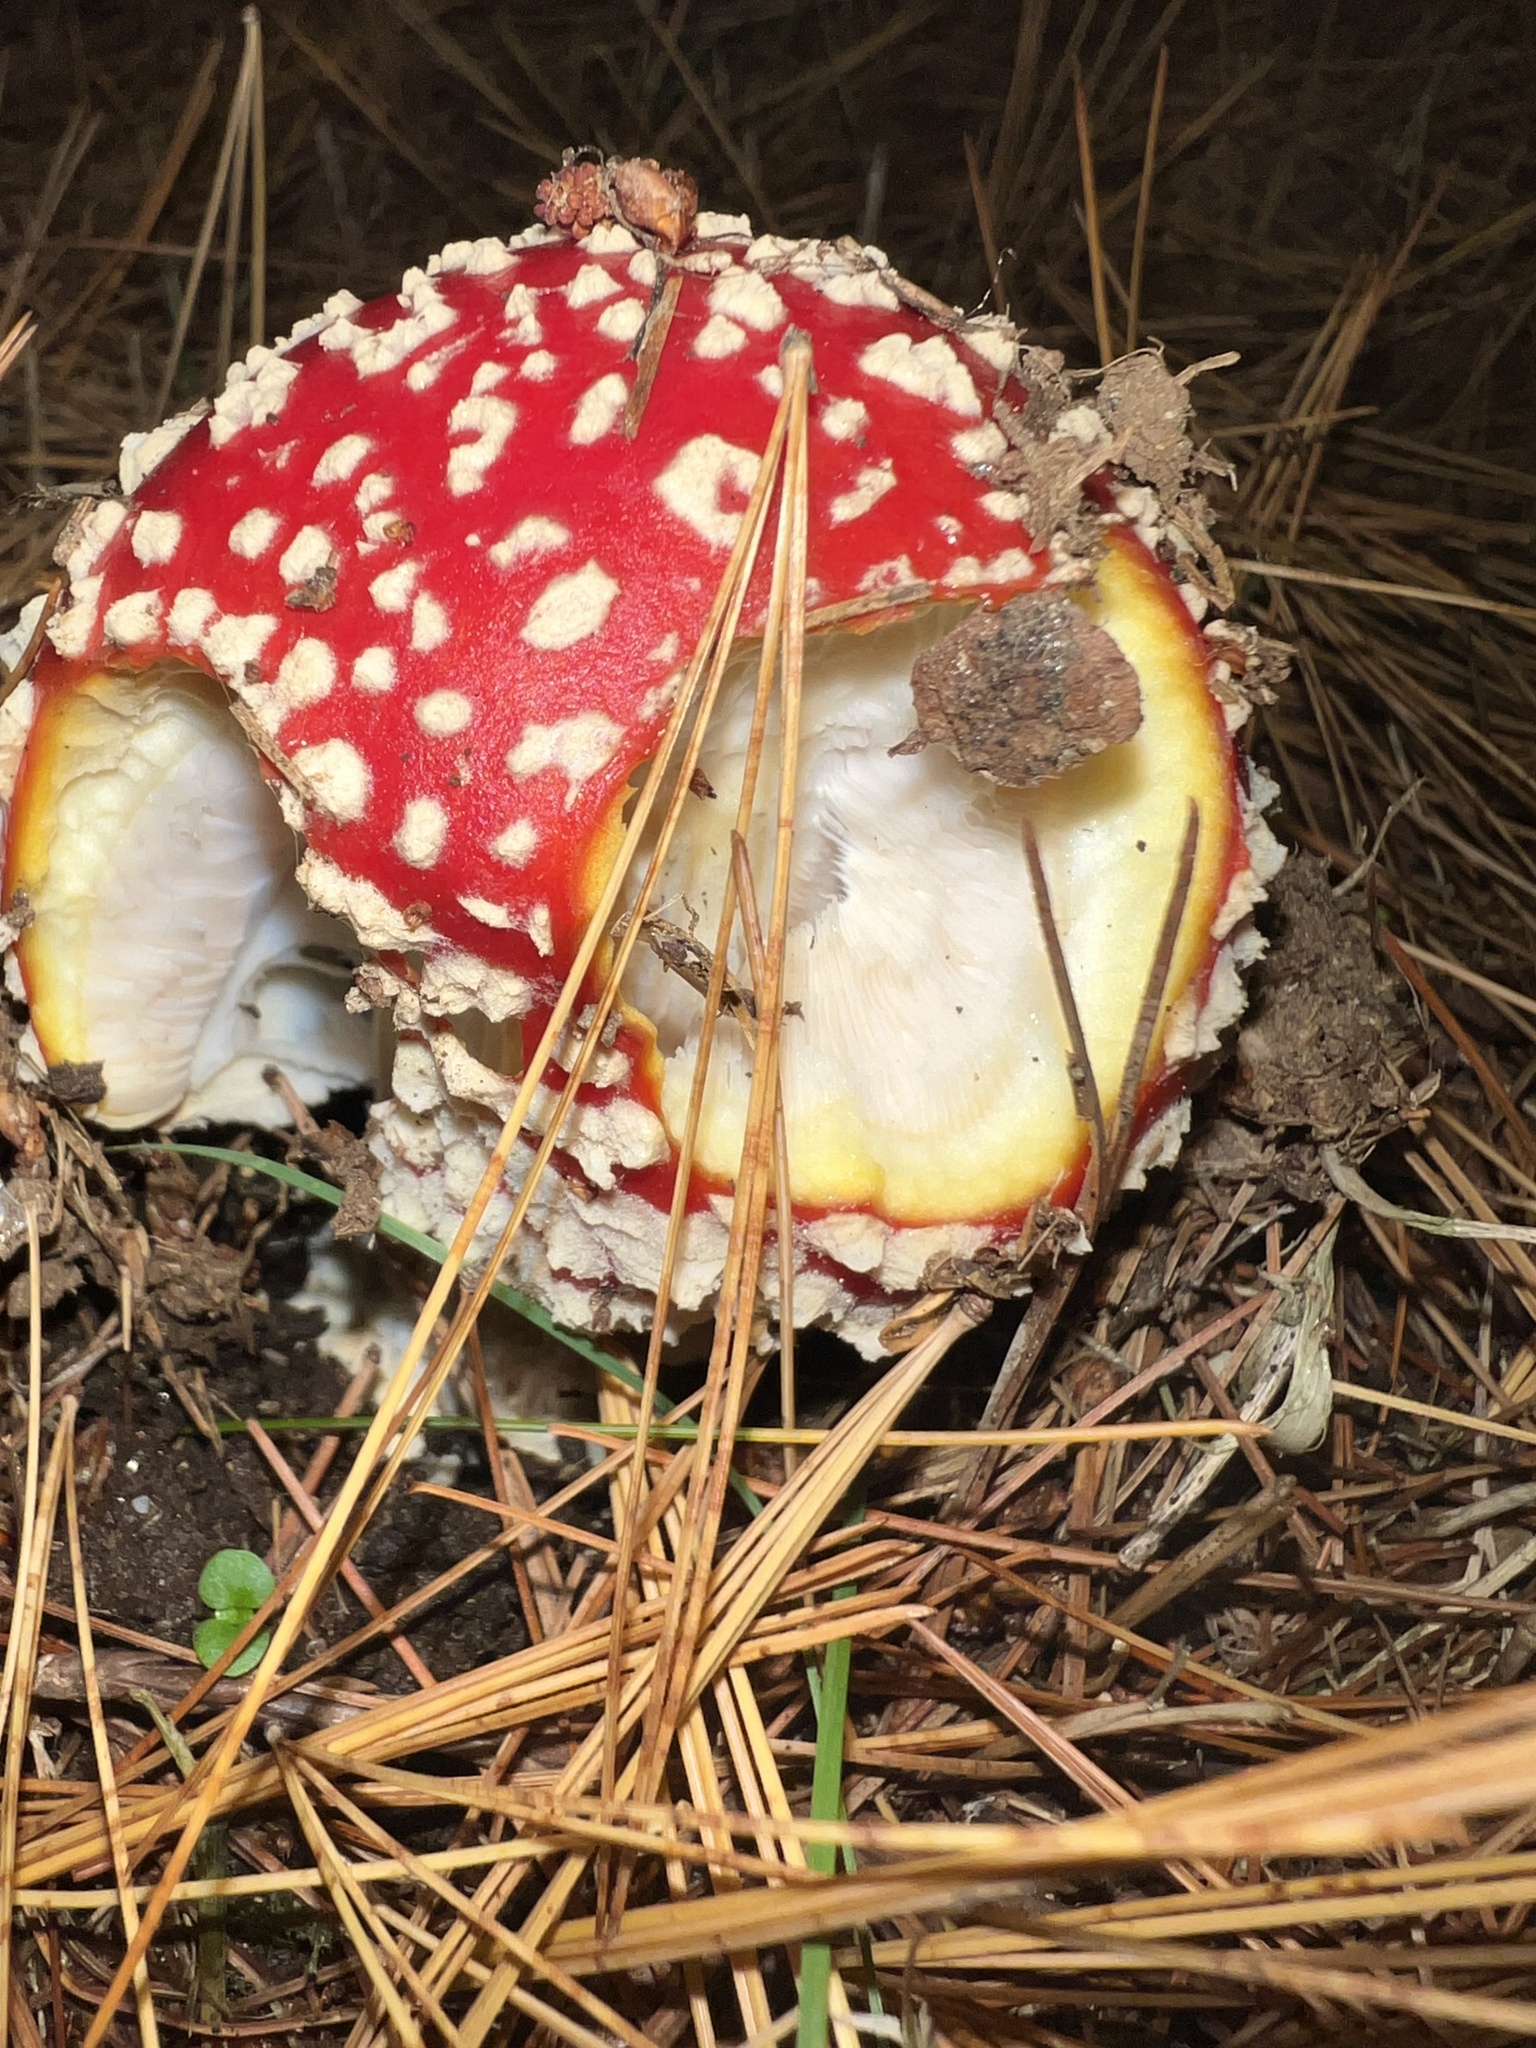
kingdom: Fungi
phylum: Basidiomycota
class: Agaricomycetes
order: Agaricales
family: Amanitaceae
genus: Amanita
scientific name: Amanita muscaria
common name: Fly agaric
